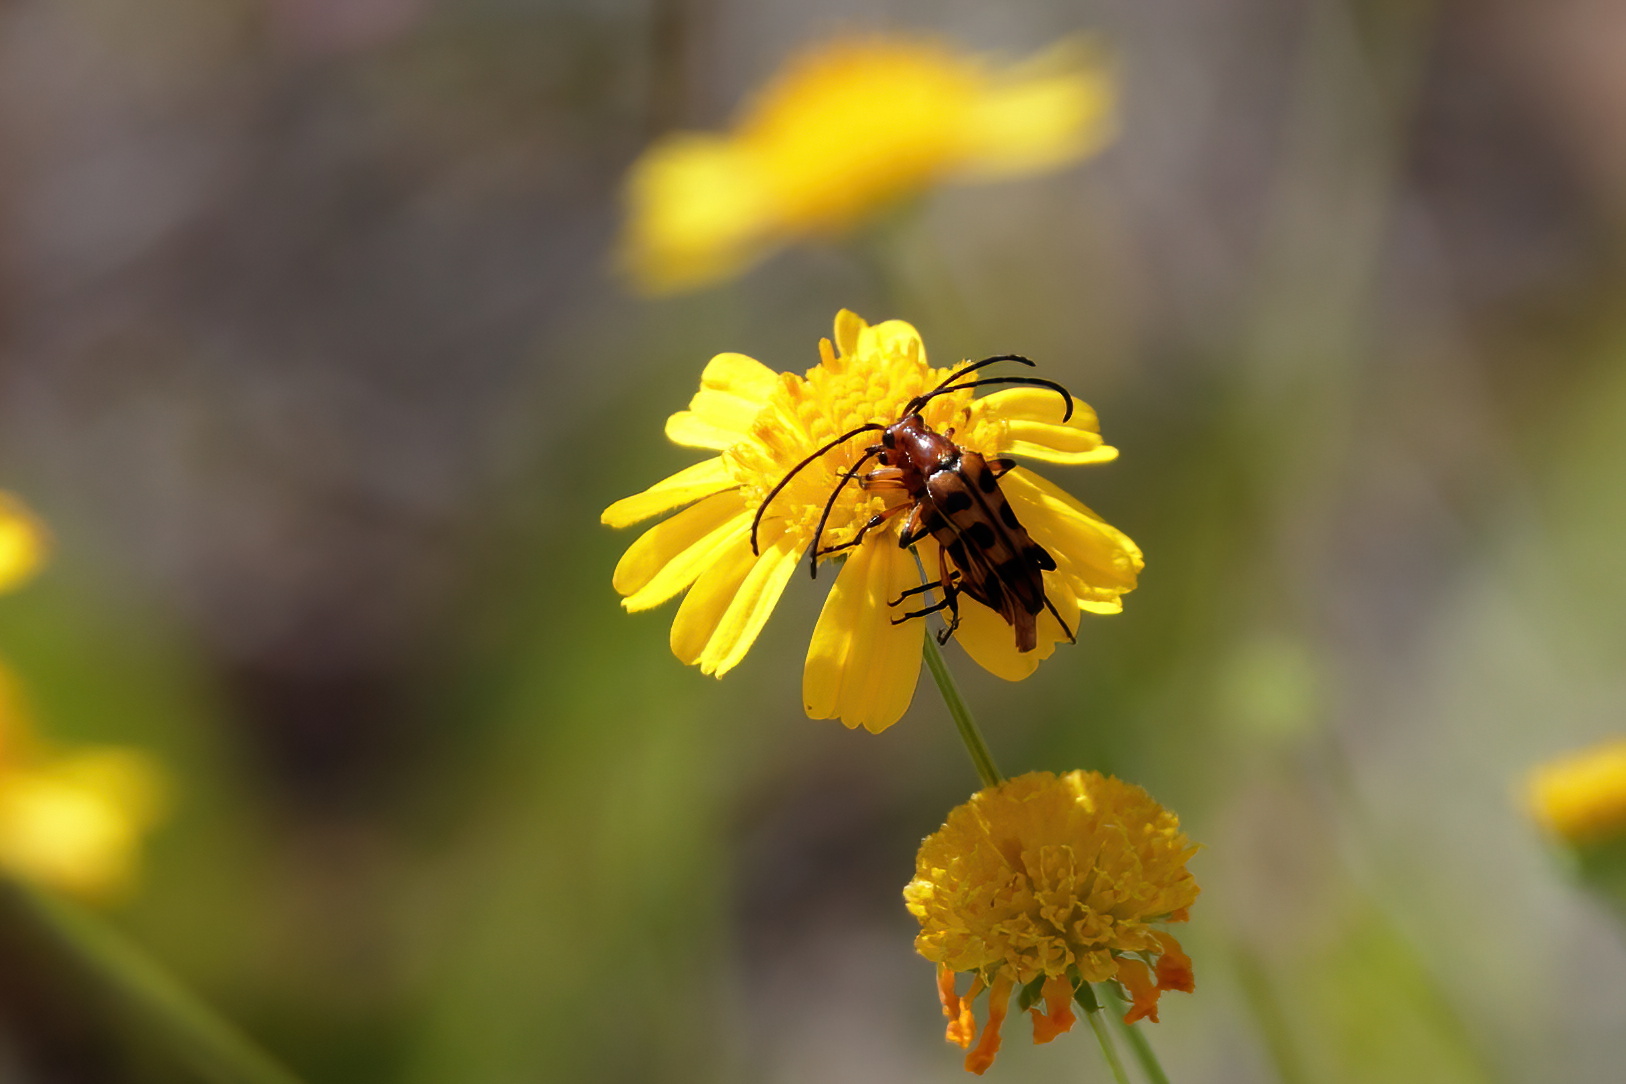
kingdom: Animalia
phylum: Arthropoda
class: Insecta
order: Coleoptera
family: Cerambycidae
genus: Strangalia
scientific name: Strangalia sexnotata
